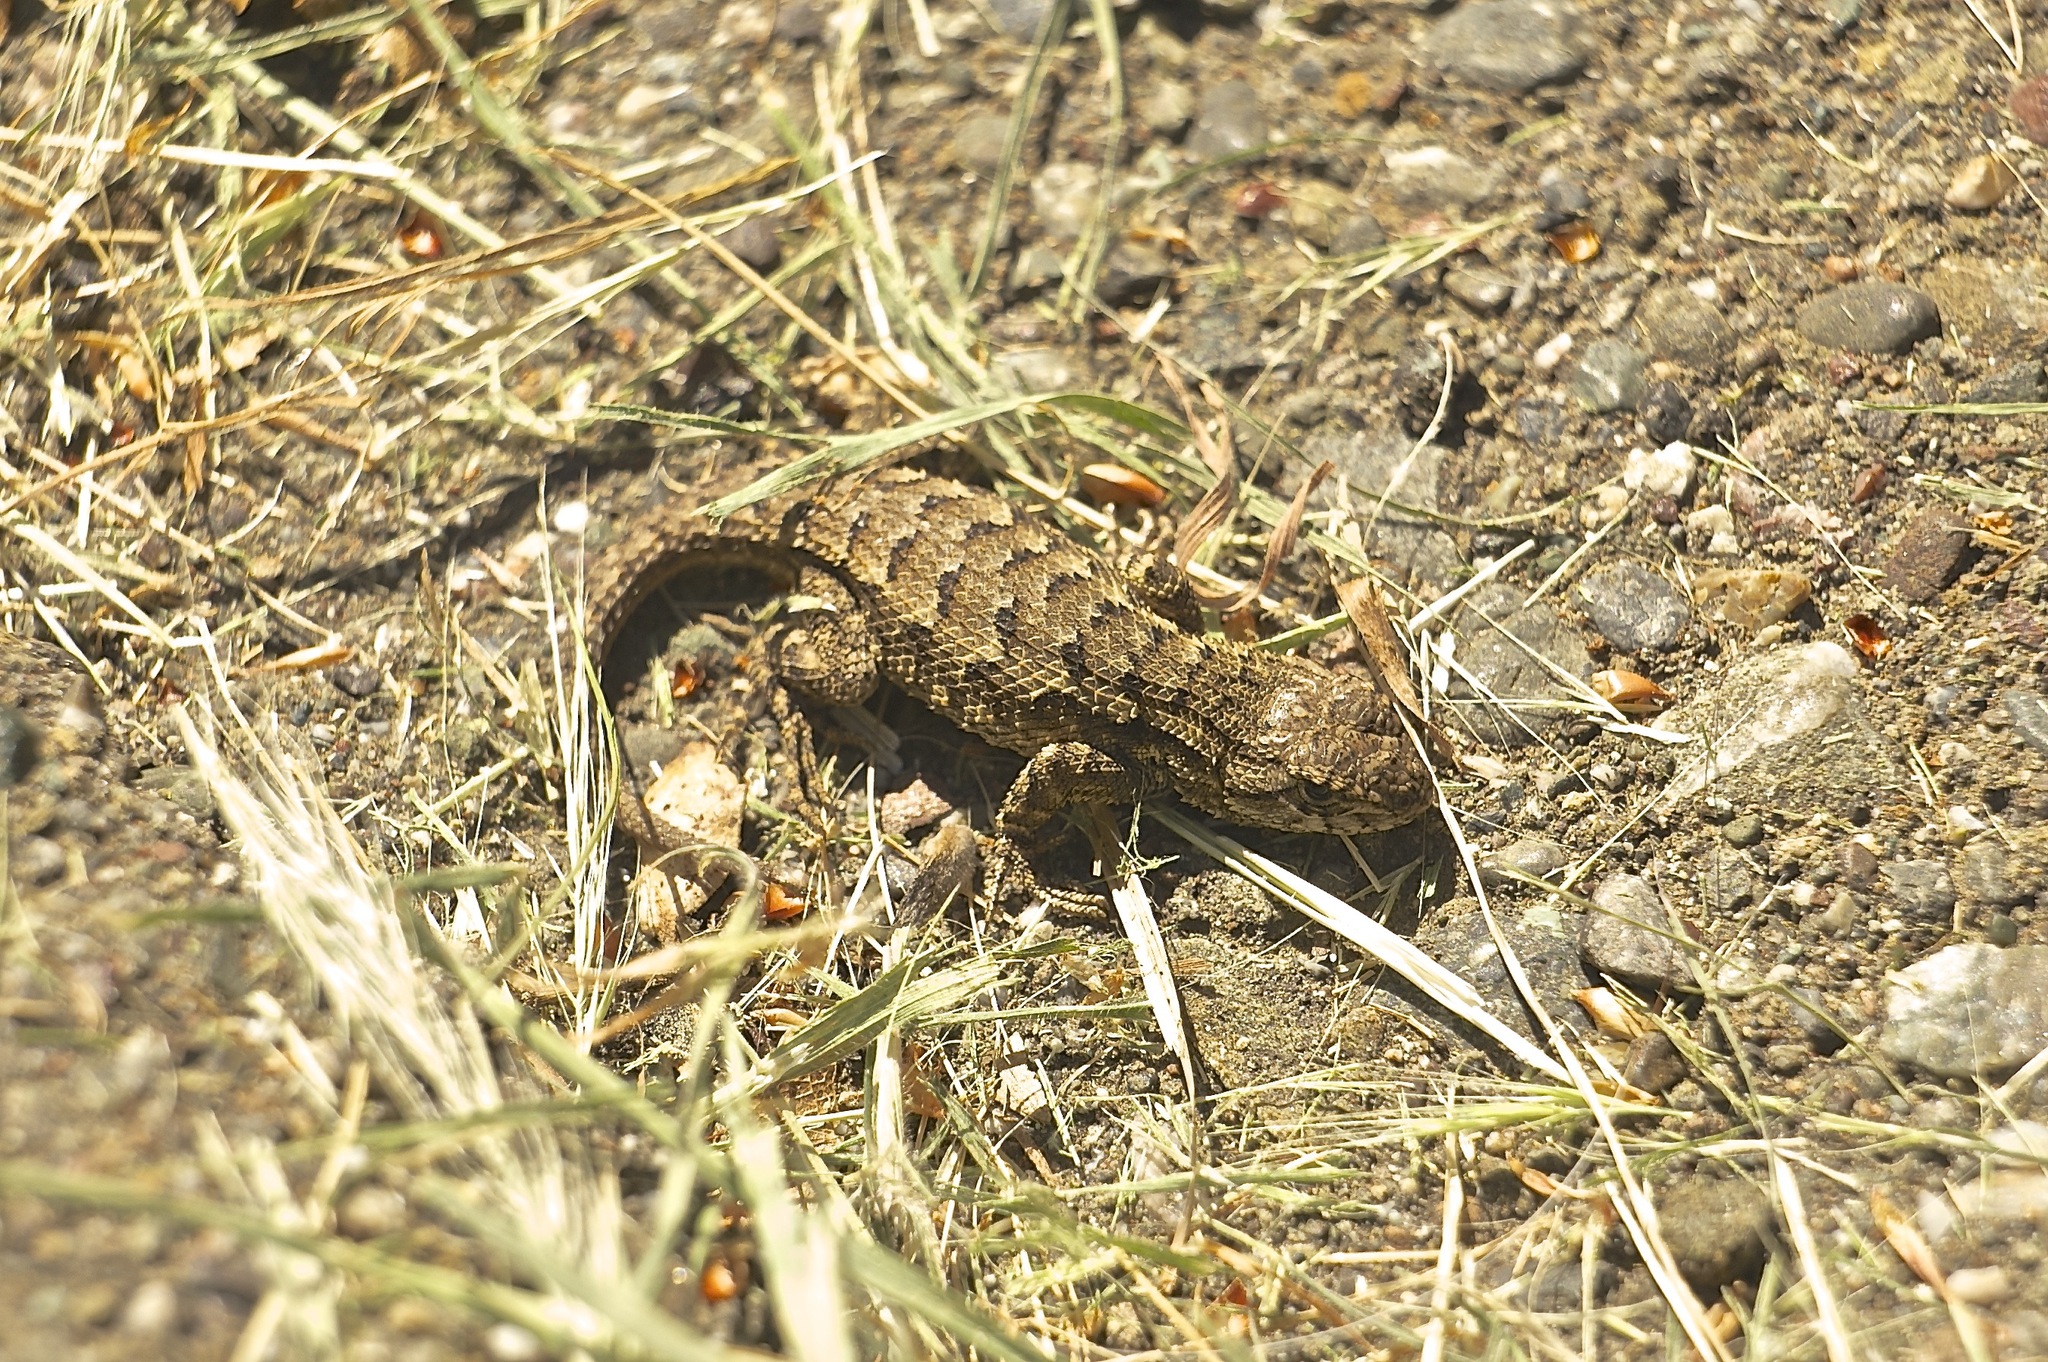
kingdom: Animalia
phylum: Chordata
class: Squamata
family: Phrynosomatidae
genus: Sceloporus
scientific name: Sceloporus occidentalis
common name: Western fence lizard
